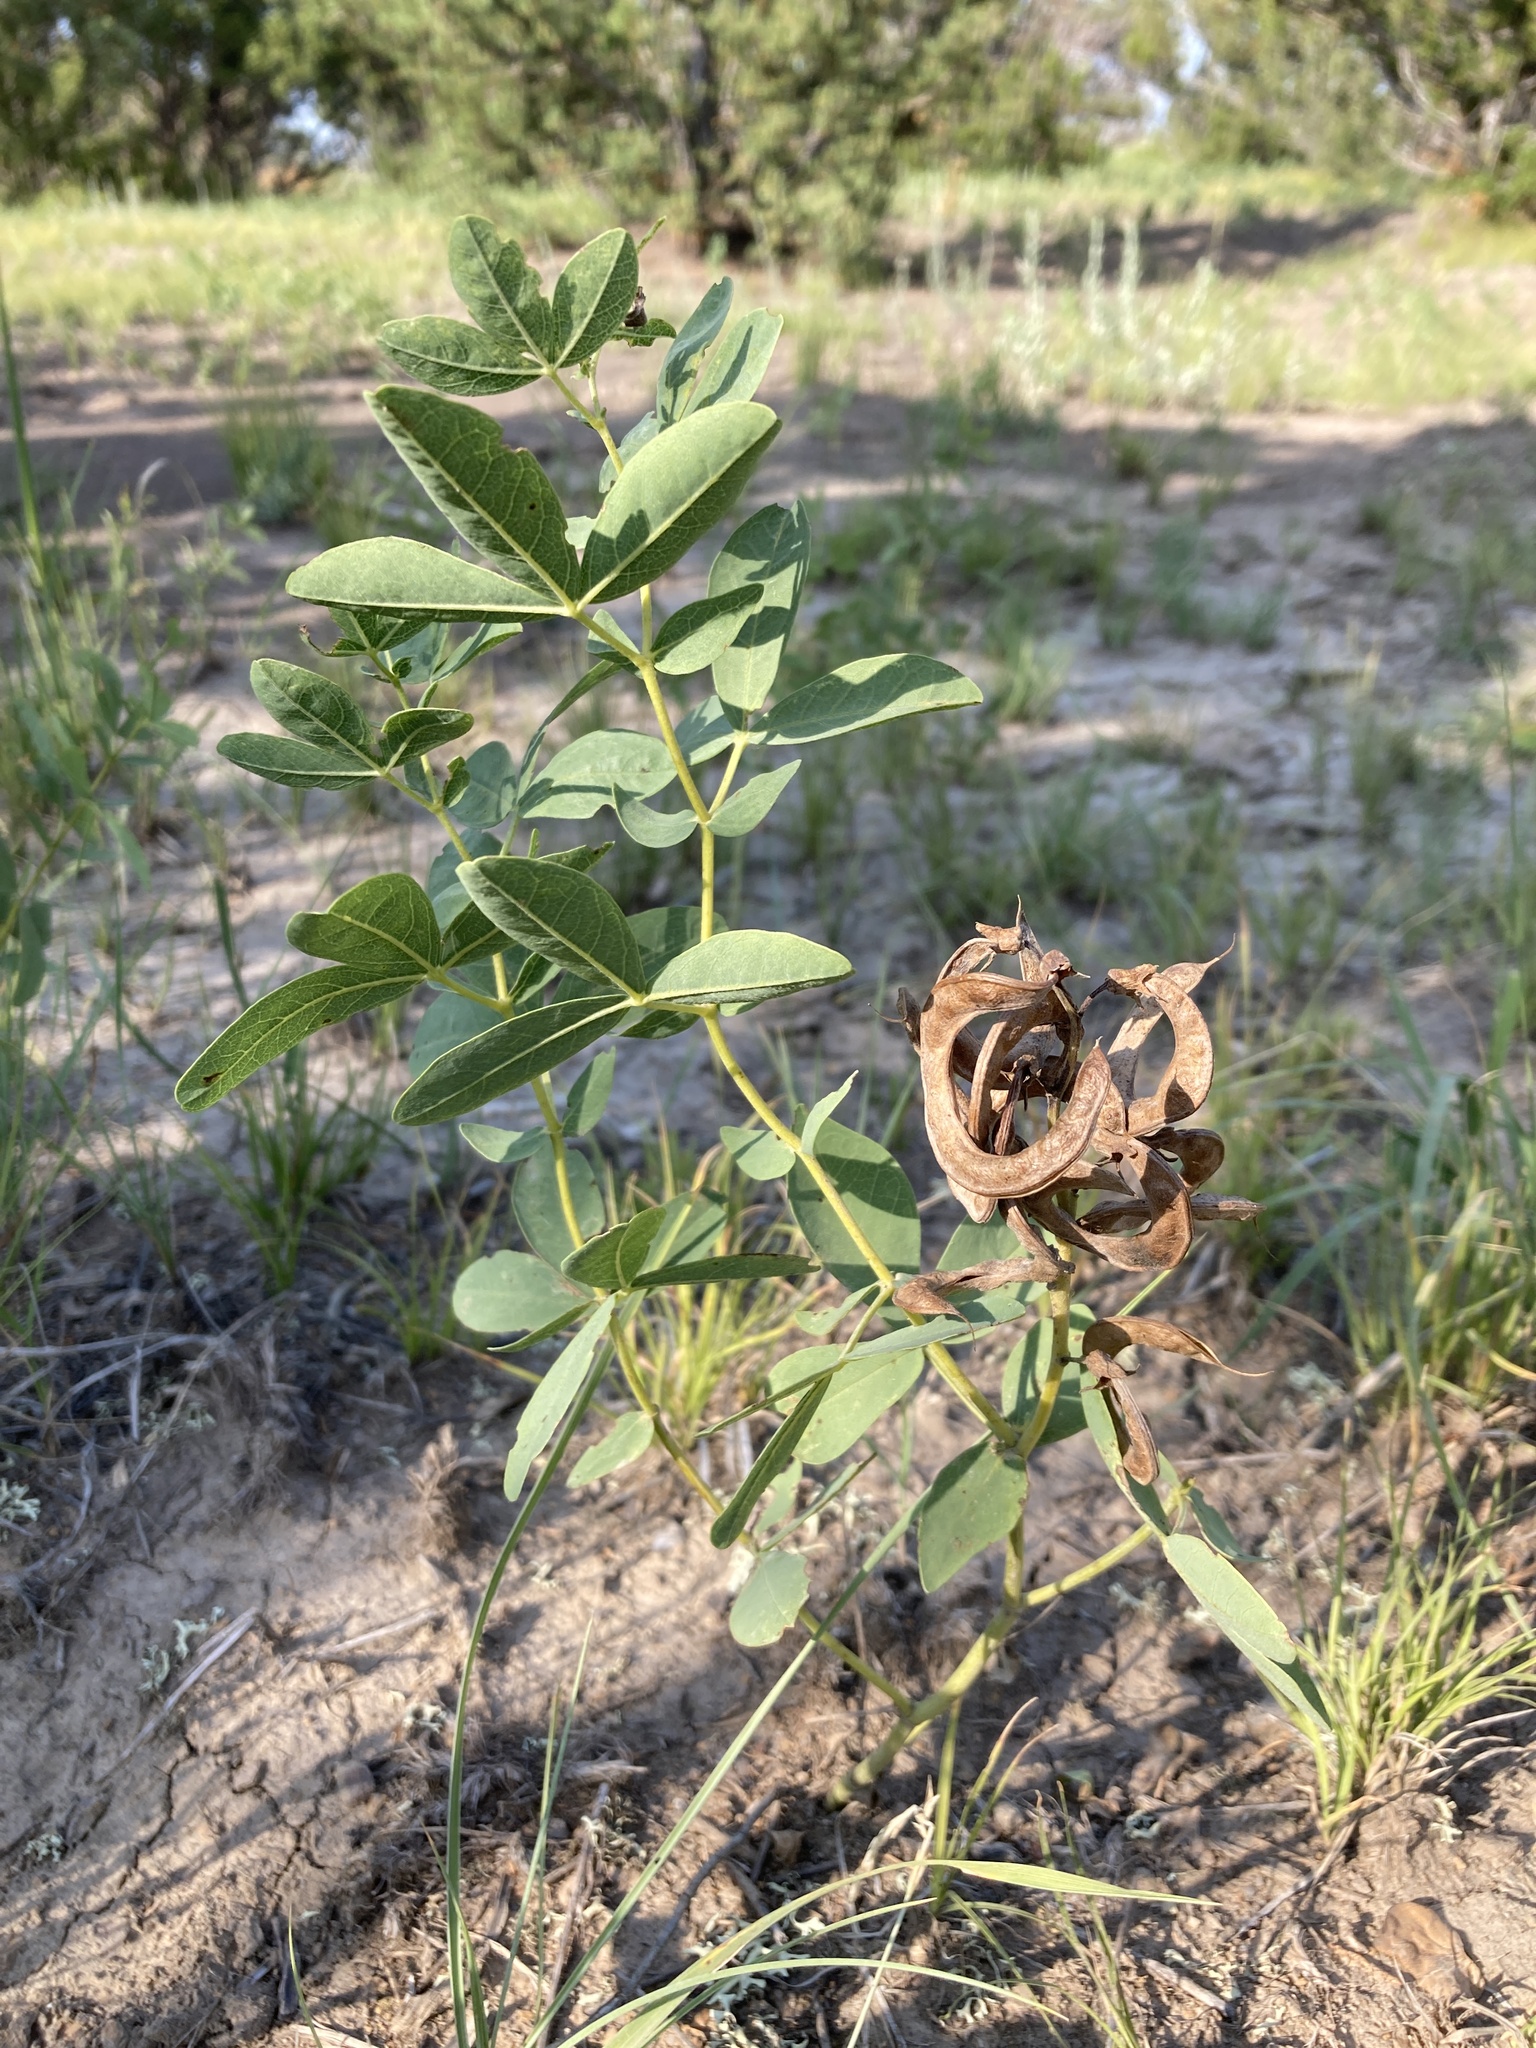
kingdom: Plantae
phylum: Tracheophyta
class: Magnoliopsida
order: Fabales
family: Fabaceae
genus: Thermopsis
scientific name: Thermopsis rhombifolia
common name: Circle-pod-pea
